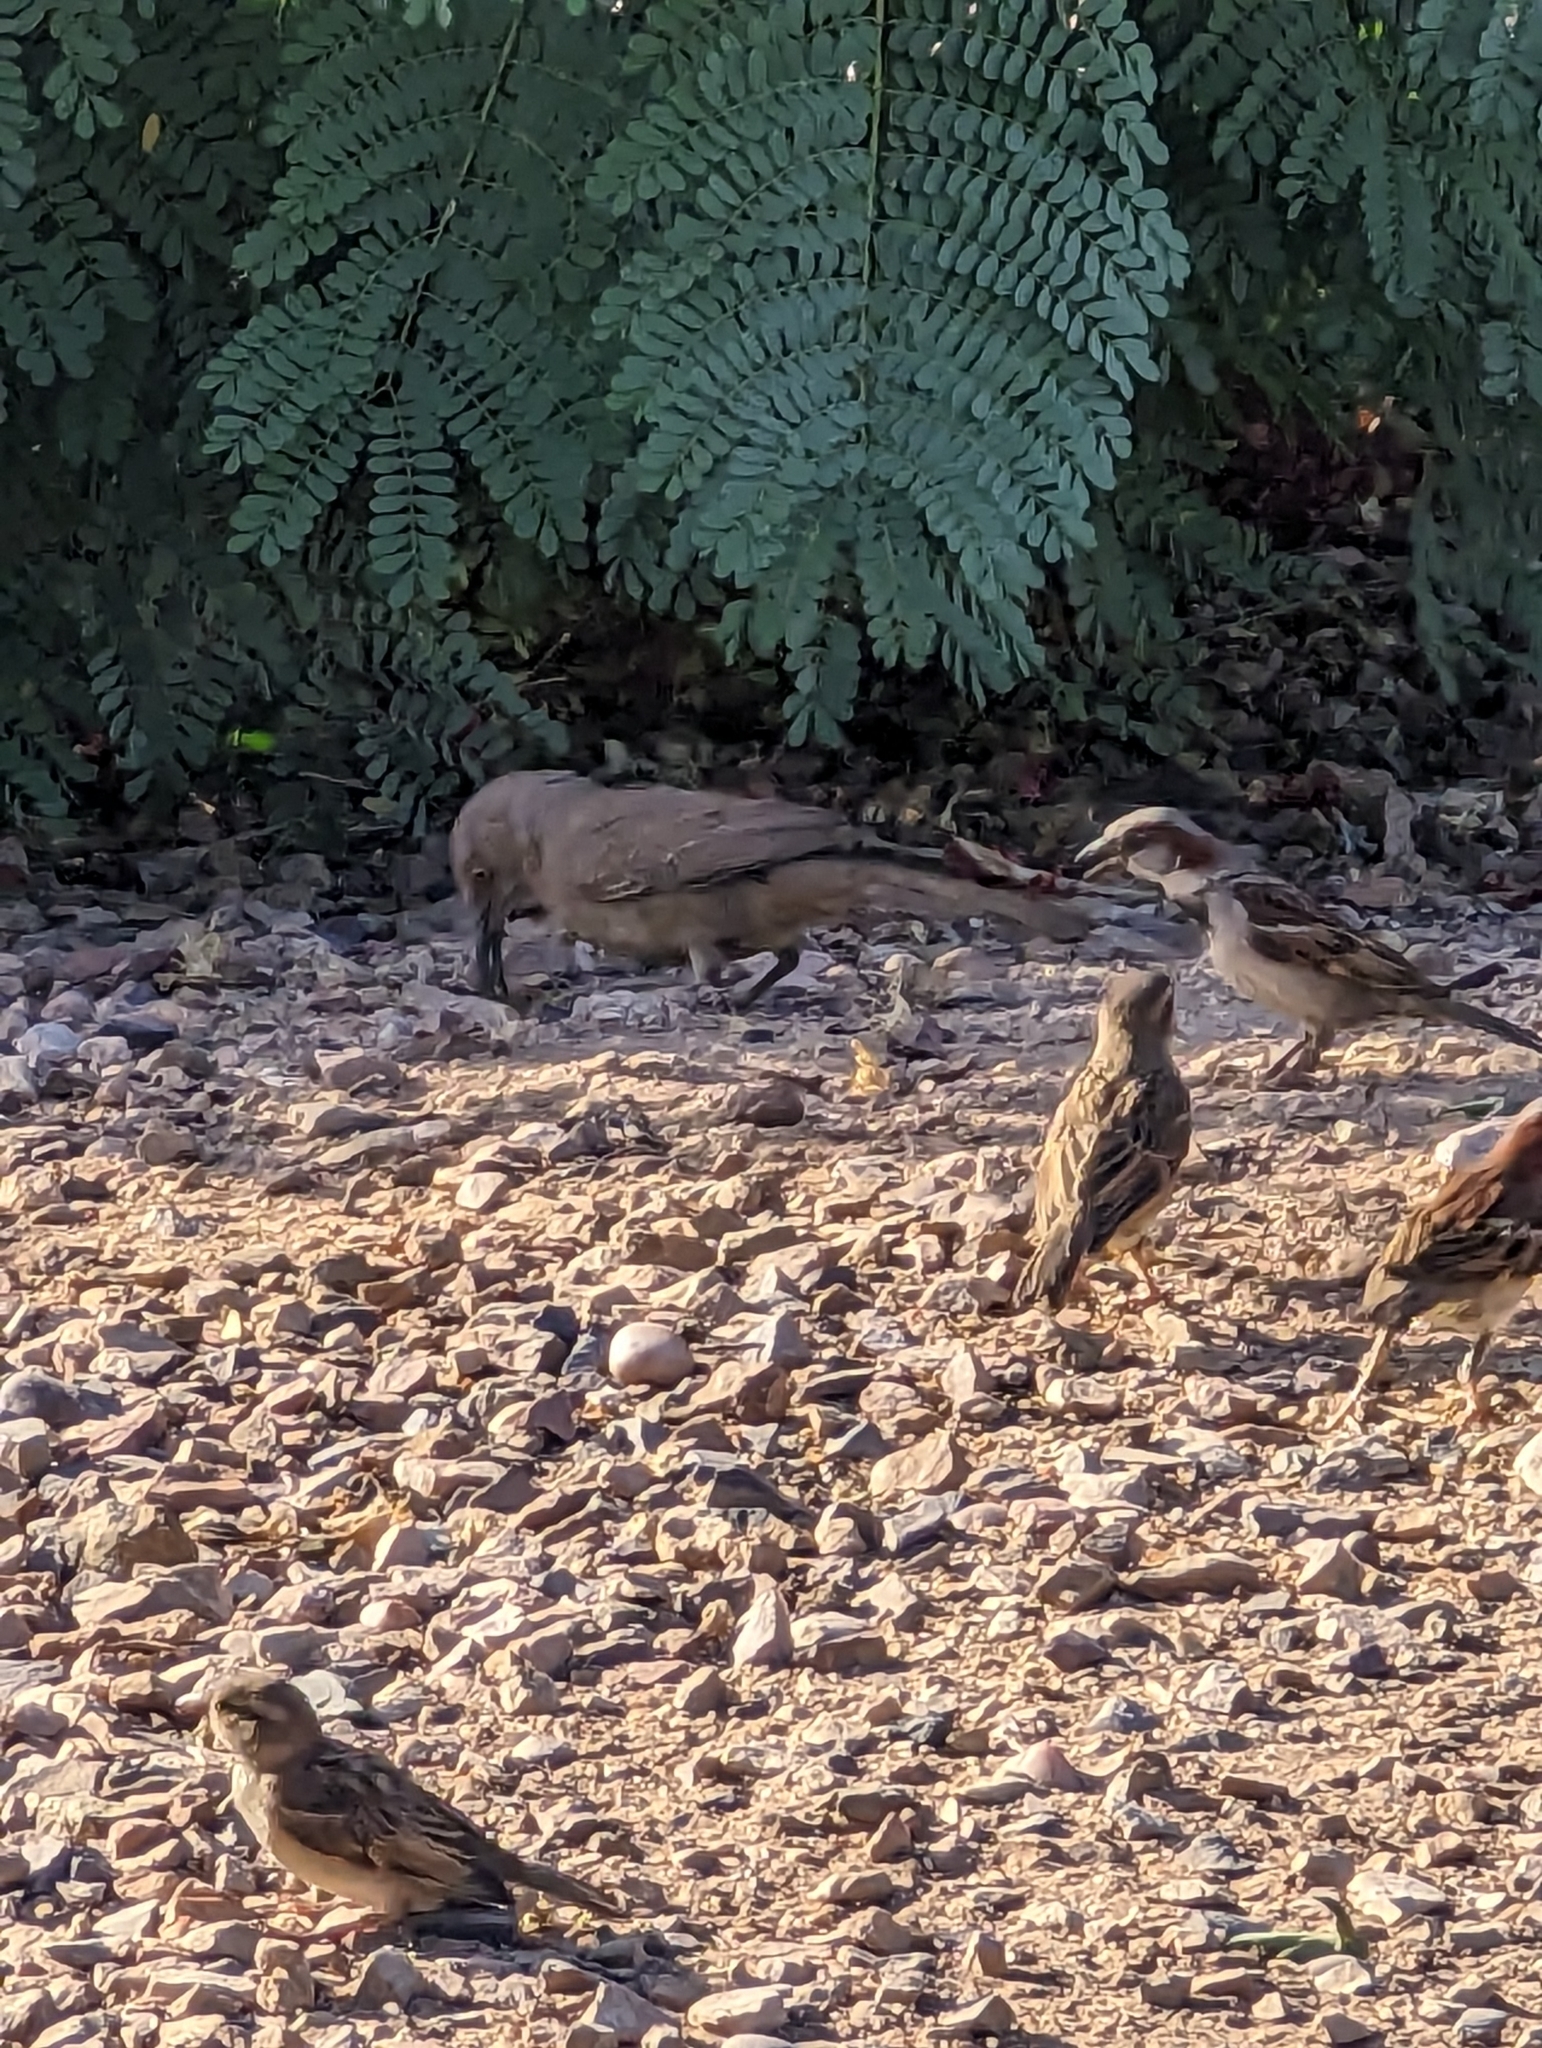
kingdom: Animalia
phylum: Chordata
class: Aves
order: Passeriformes
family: Mimidae
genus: Toxostoma
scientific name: Toxostoma curvirostre
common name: Curve-billed thrasher
